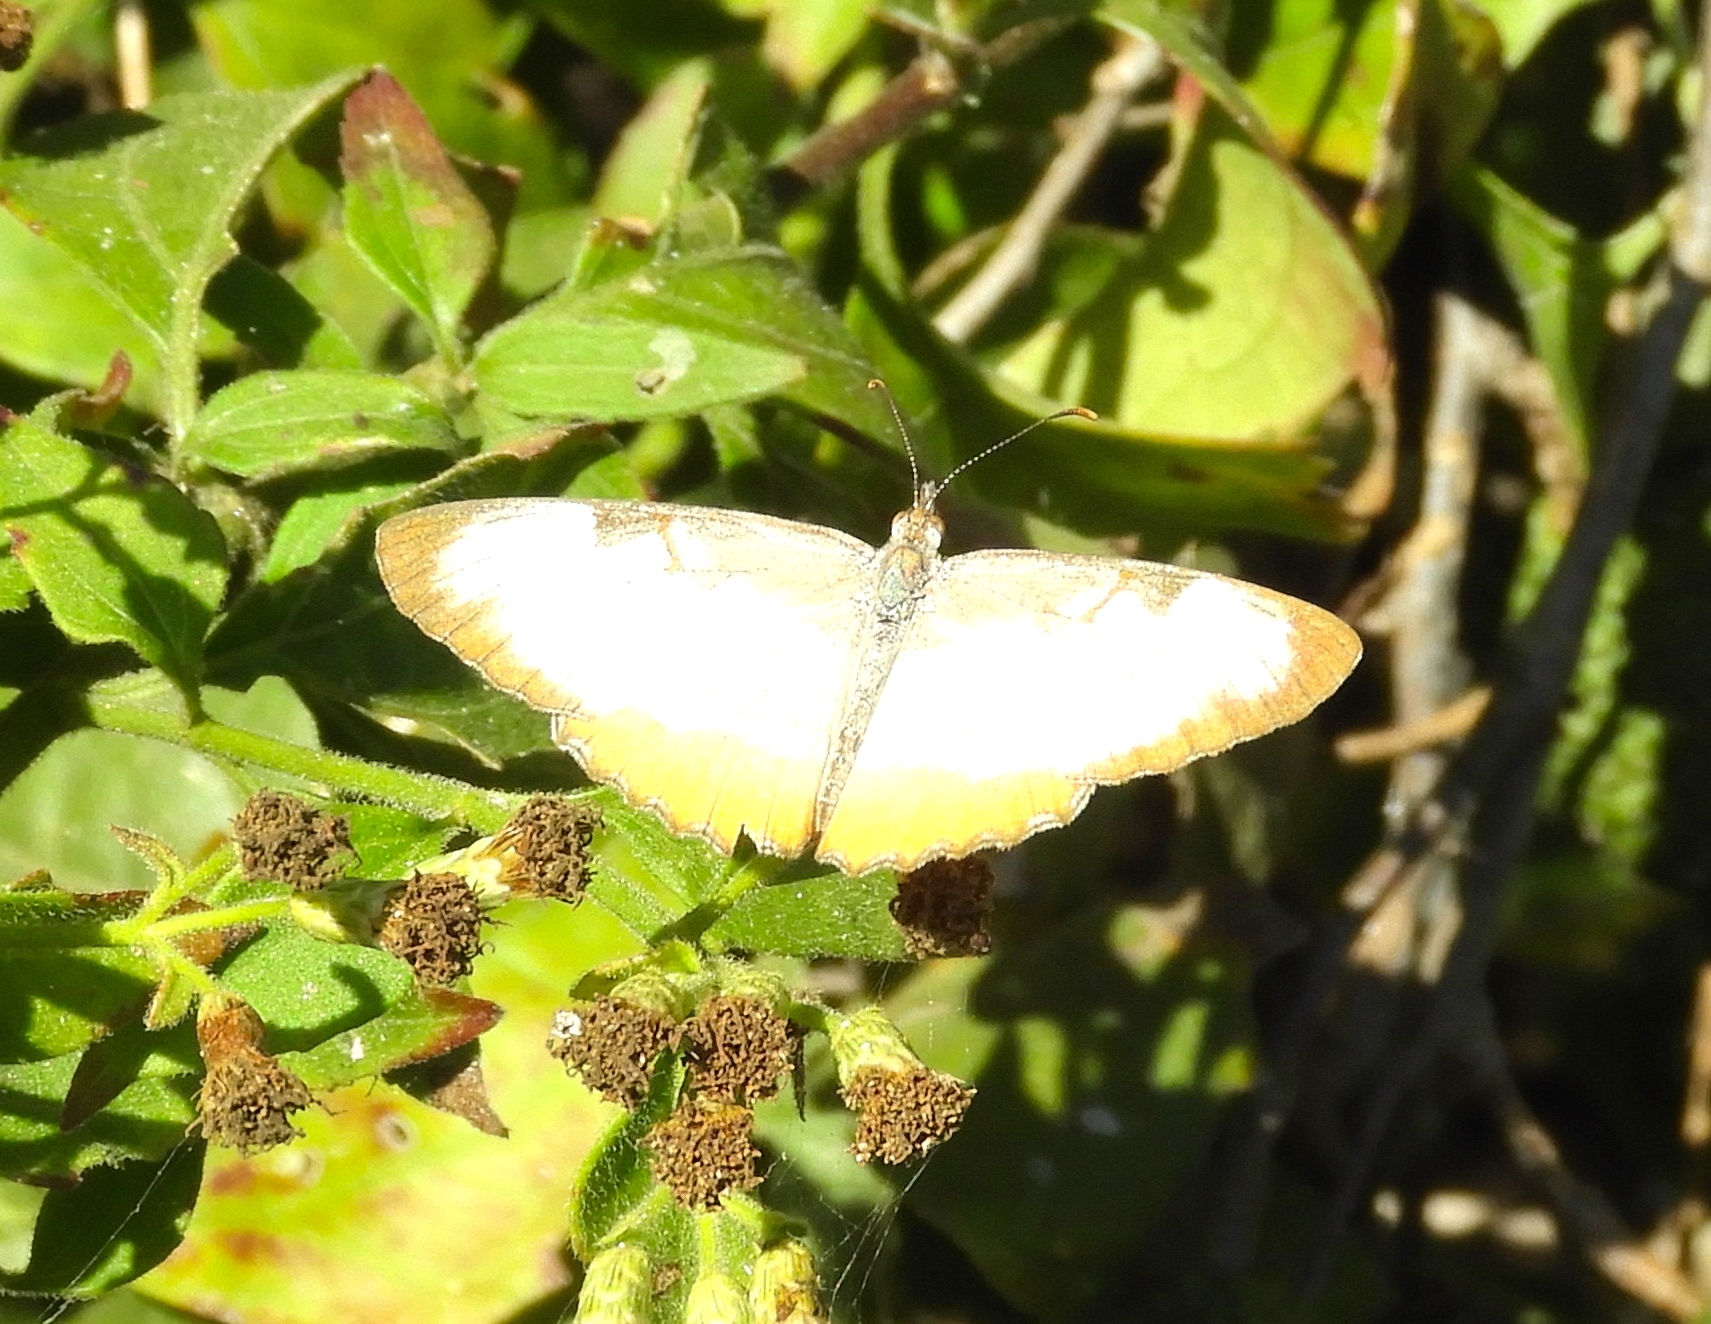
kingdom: Animalia
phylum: Arthropoda
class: Insecta
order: Lepidoptera
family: Nymphalidae
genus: Mestra
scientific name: Mestra amymone
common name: Common mestra
